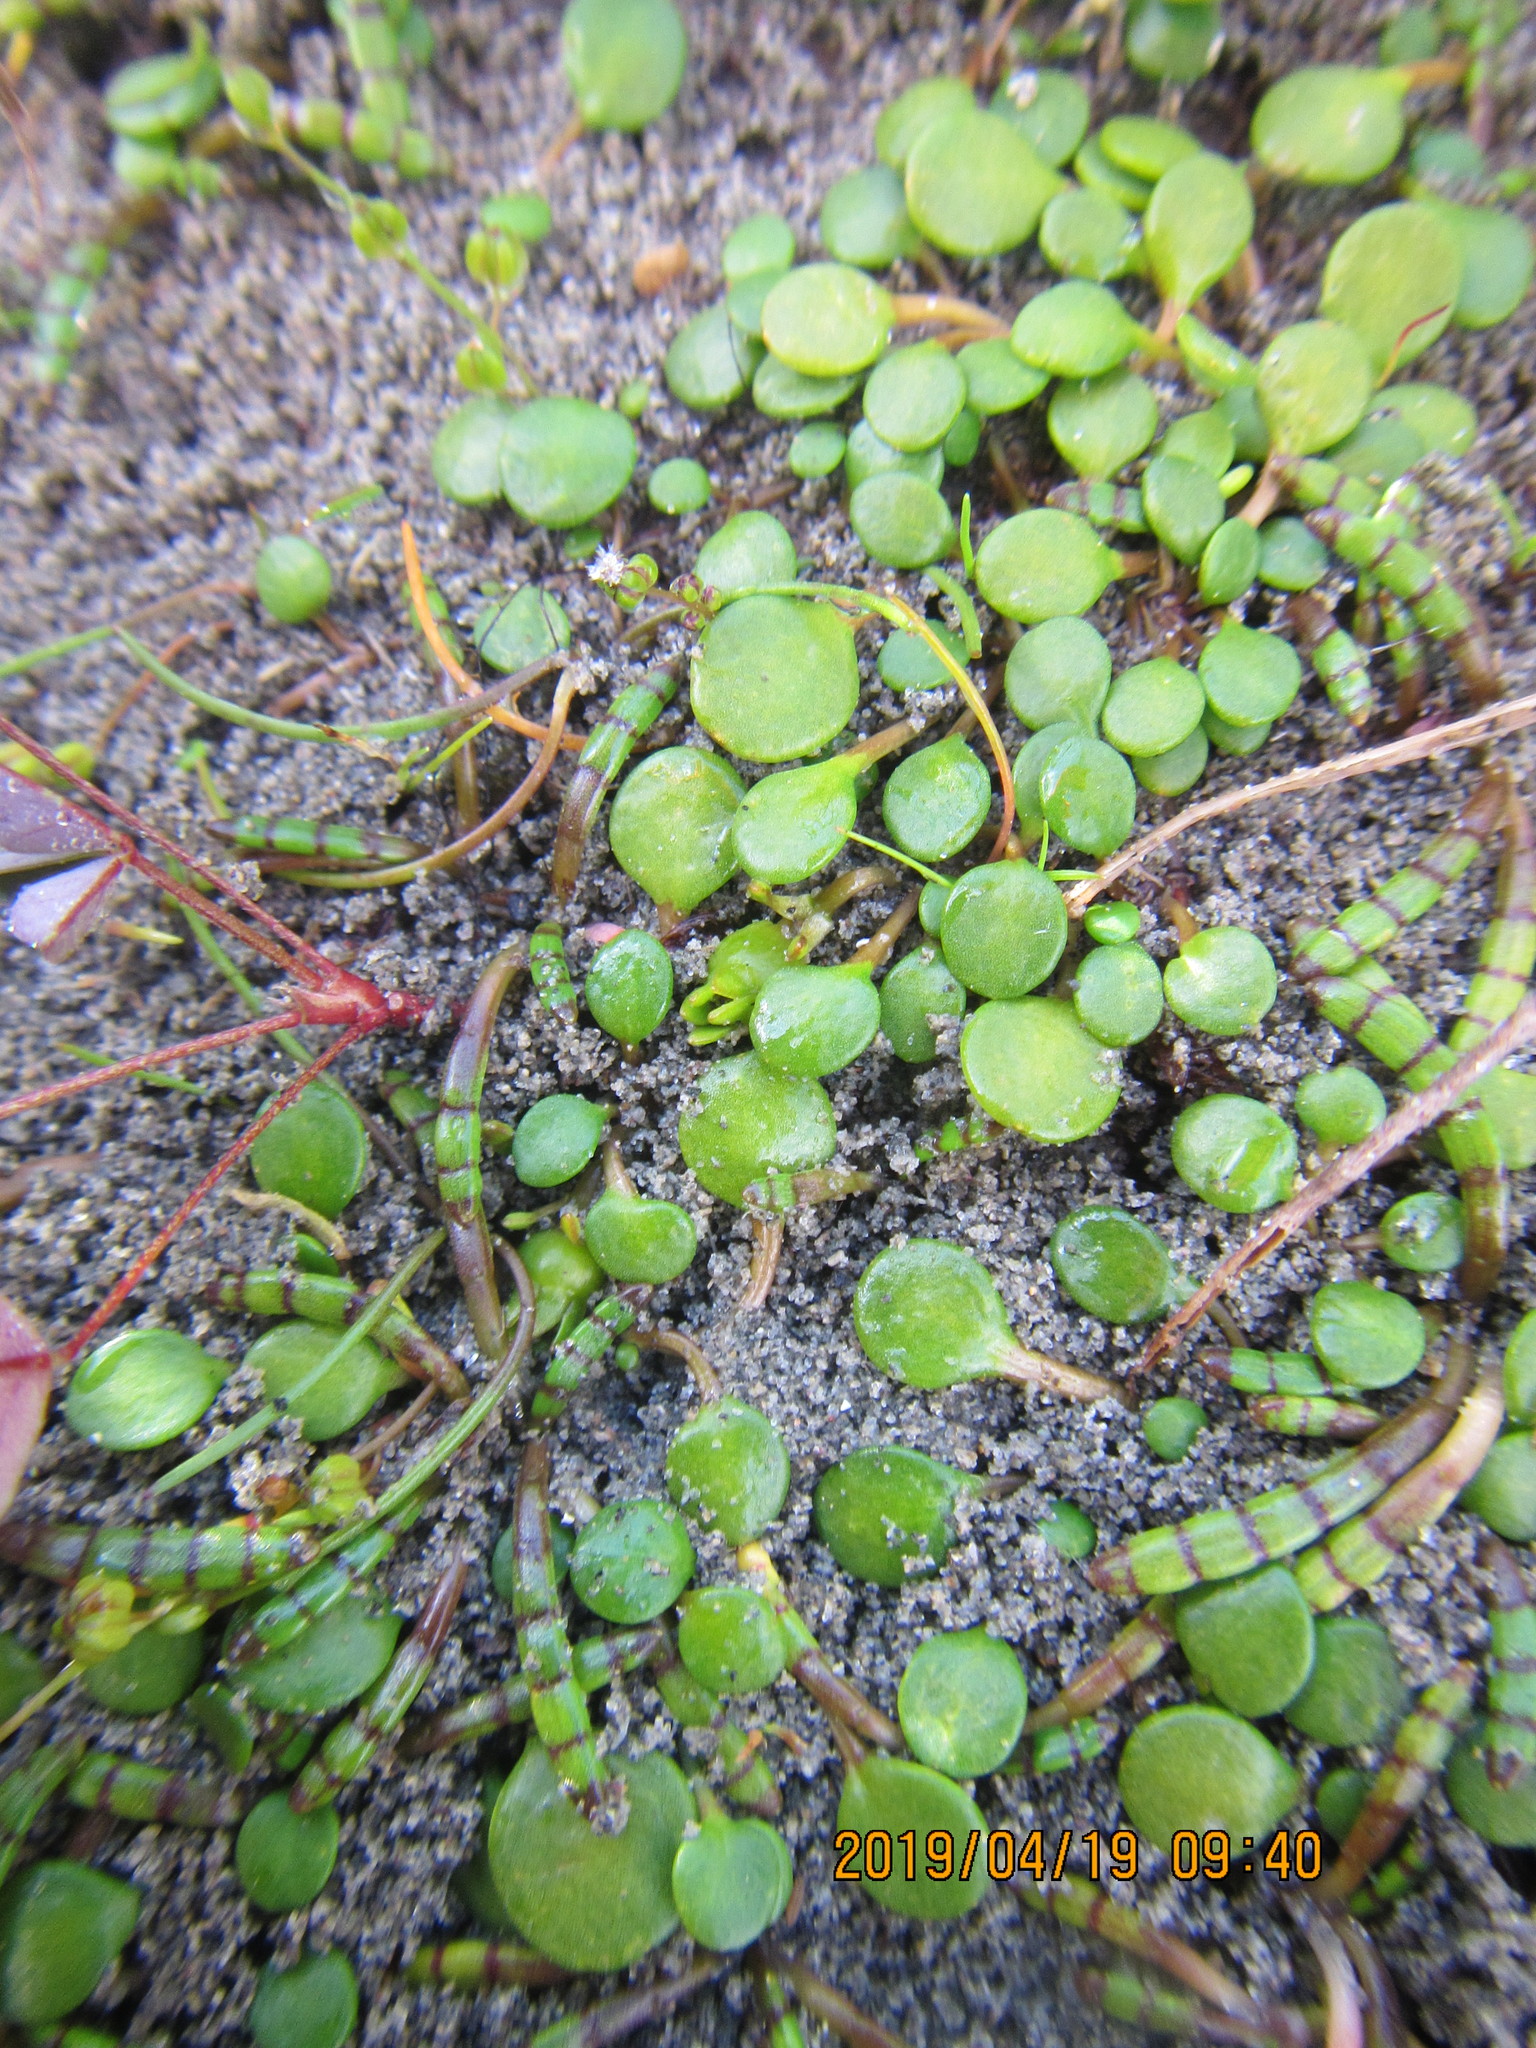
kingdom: Plantae
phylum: Tracheophyta
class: Magnoliopsida
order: Asterales
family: Goodeniaceae
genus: Goodenia
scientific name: Goodenia heenanii
